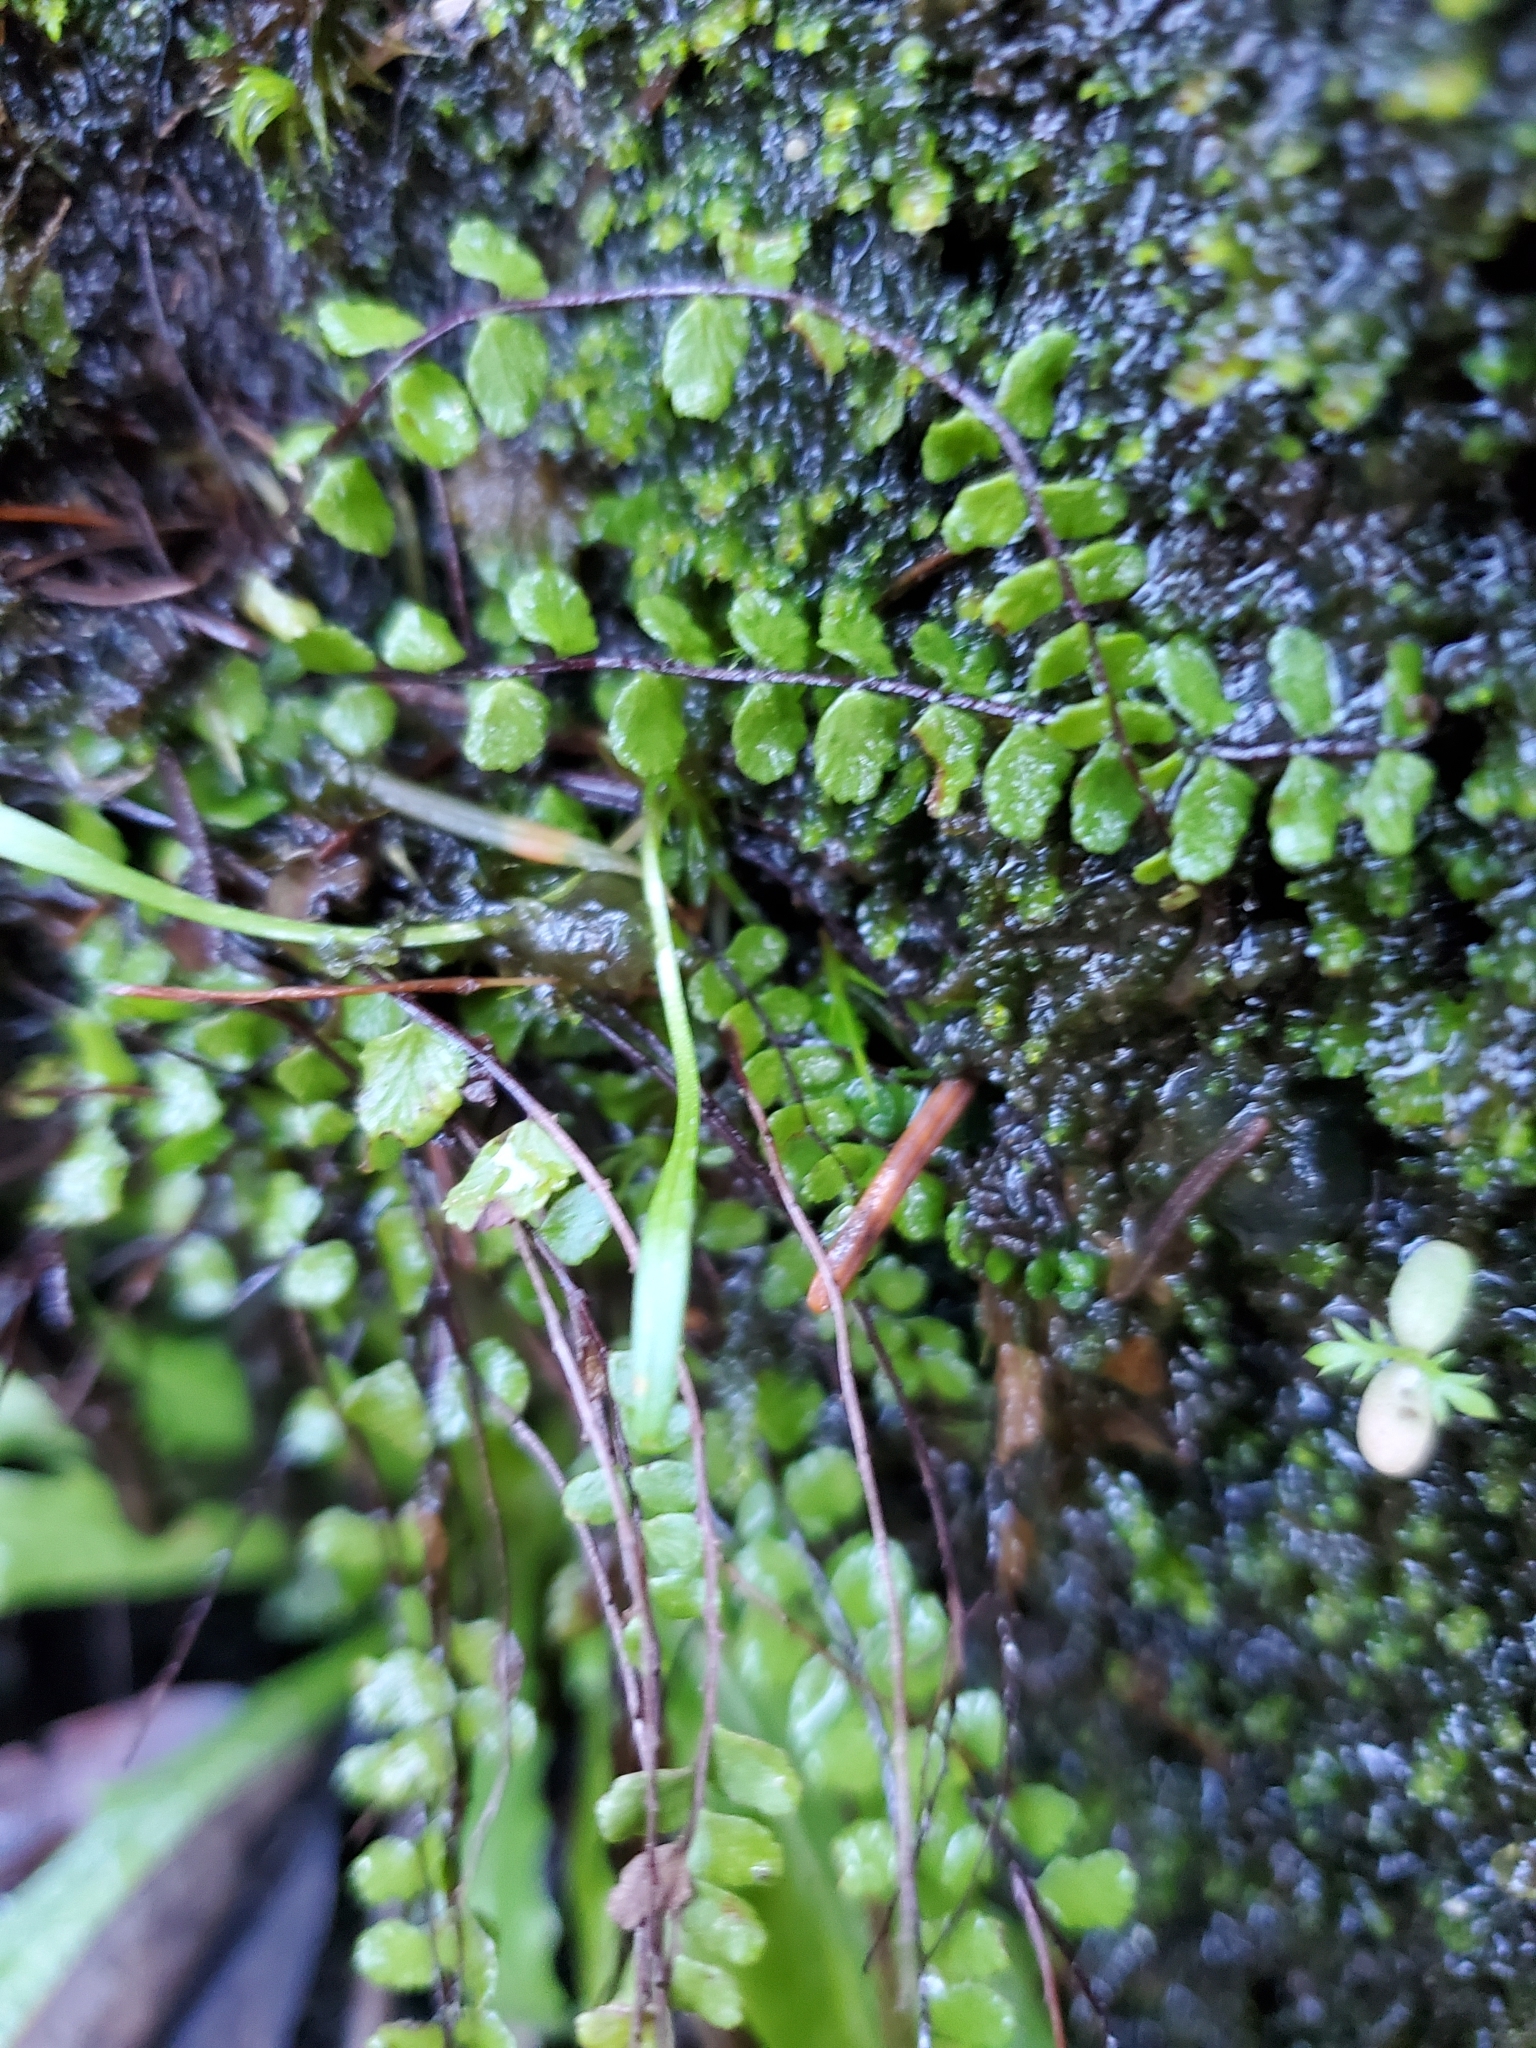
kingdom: Plantae
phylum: Tracheophyta
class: Polypodiopsida
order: Polypodiales
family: Aspleniaceae
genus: Asplenium
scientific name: Asplenium trichomanes
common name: Maidenhair spleenwort
